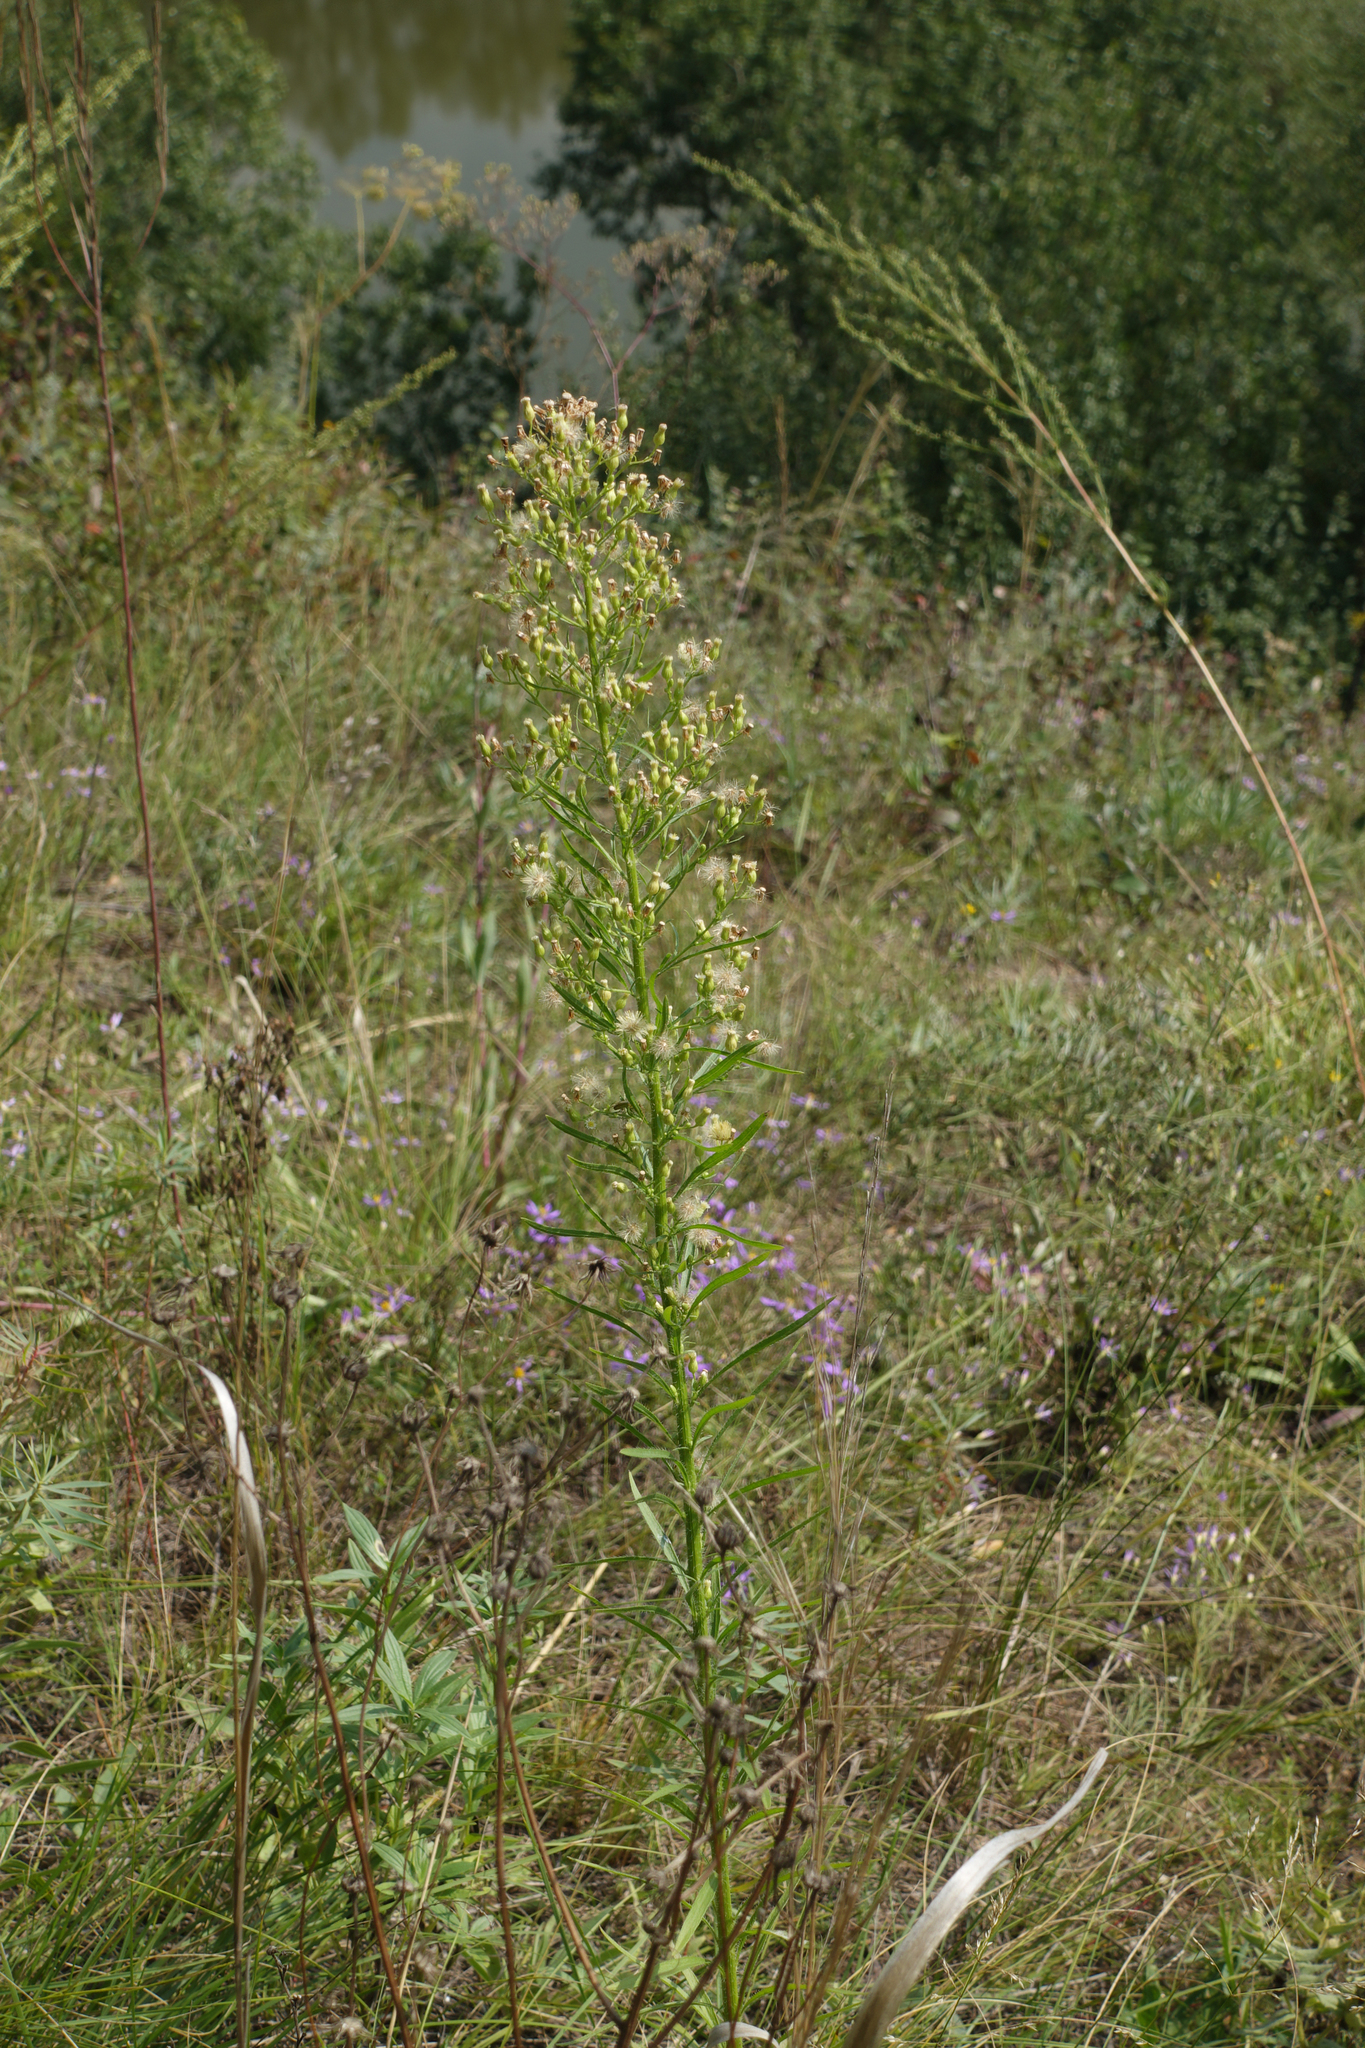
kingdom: Plantae
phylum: Tracheophyta
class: Magnoliopsida
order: Asterales
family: Asteraceae
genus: Erigeron
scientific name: Erigeron canadensis
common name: Canadian fleabane
